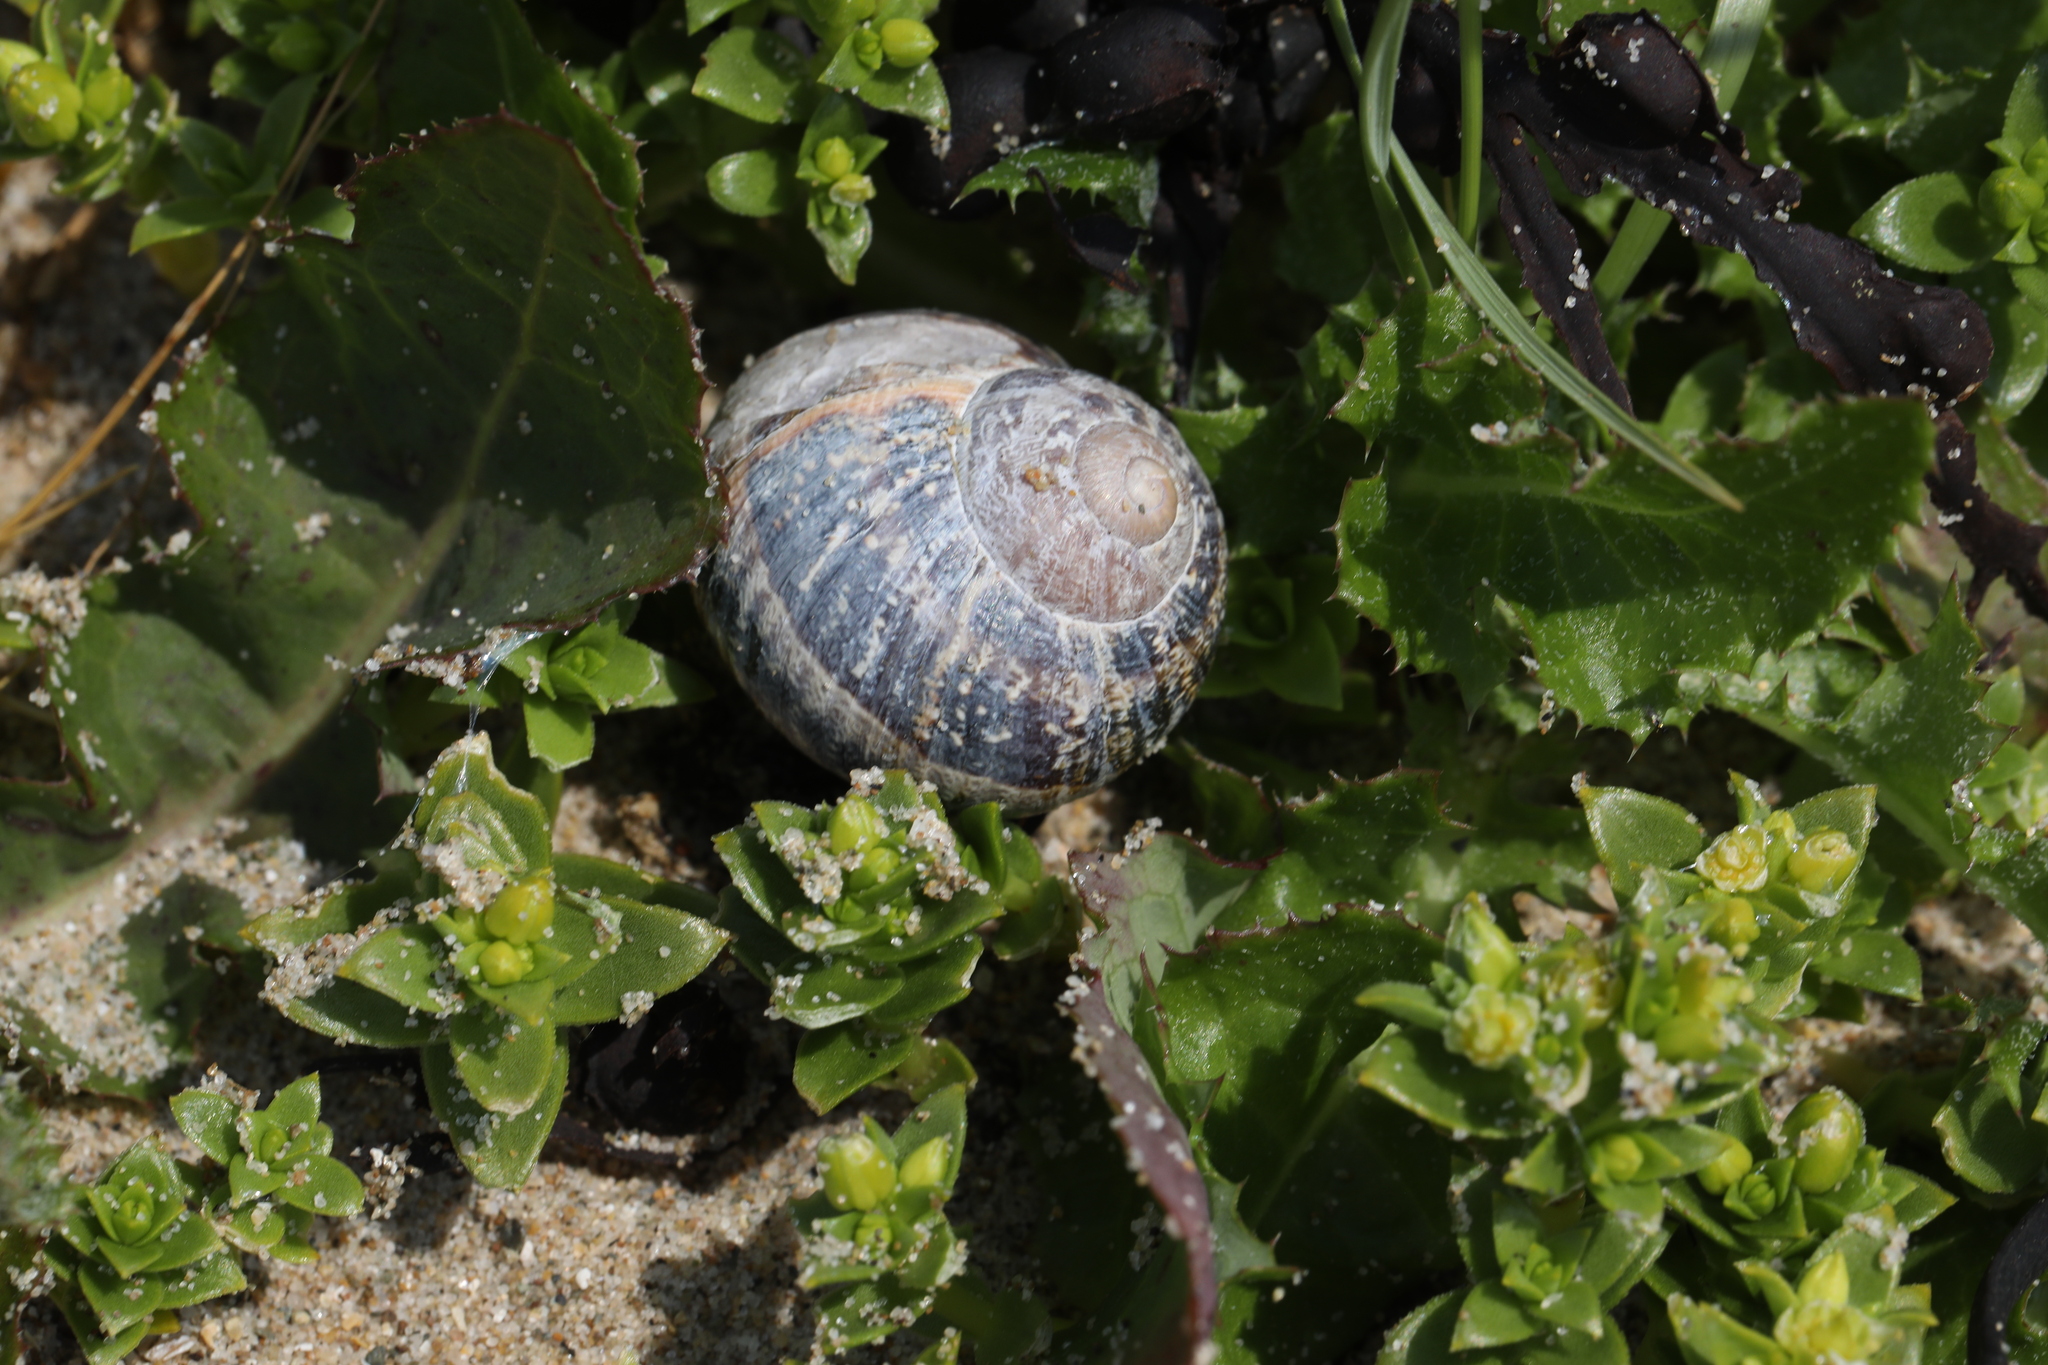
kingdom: Animalia
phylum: Mollusca
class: Gastropoda
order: Stylommatophora
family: Helicidae
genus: Cornu
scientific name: Cornu aspersum
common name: Brown garden snail
